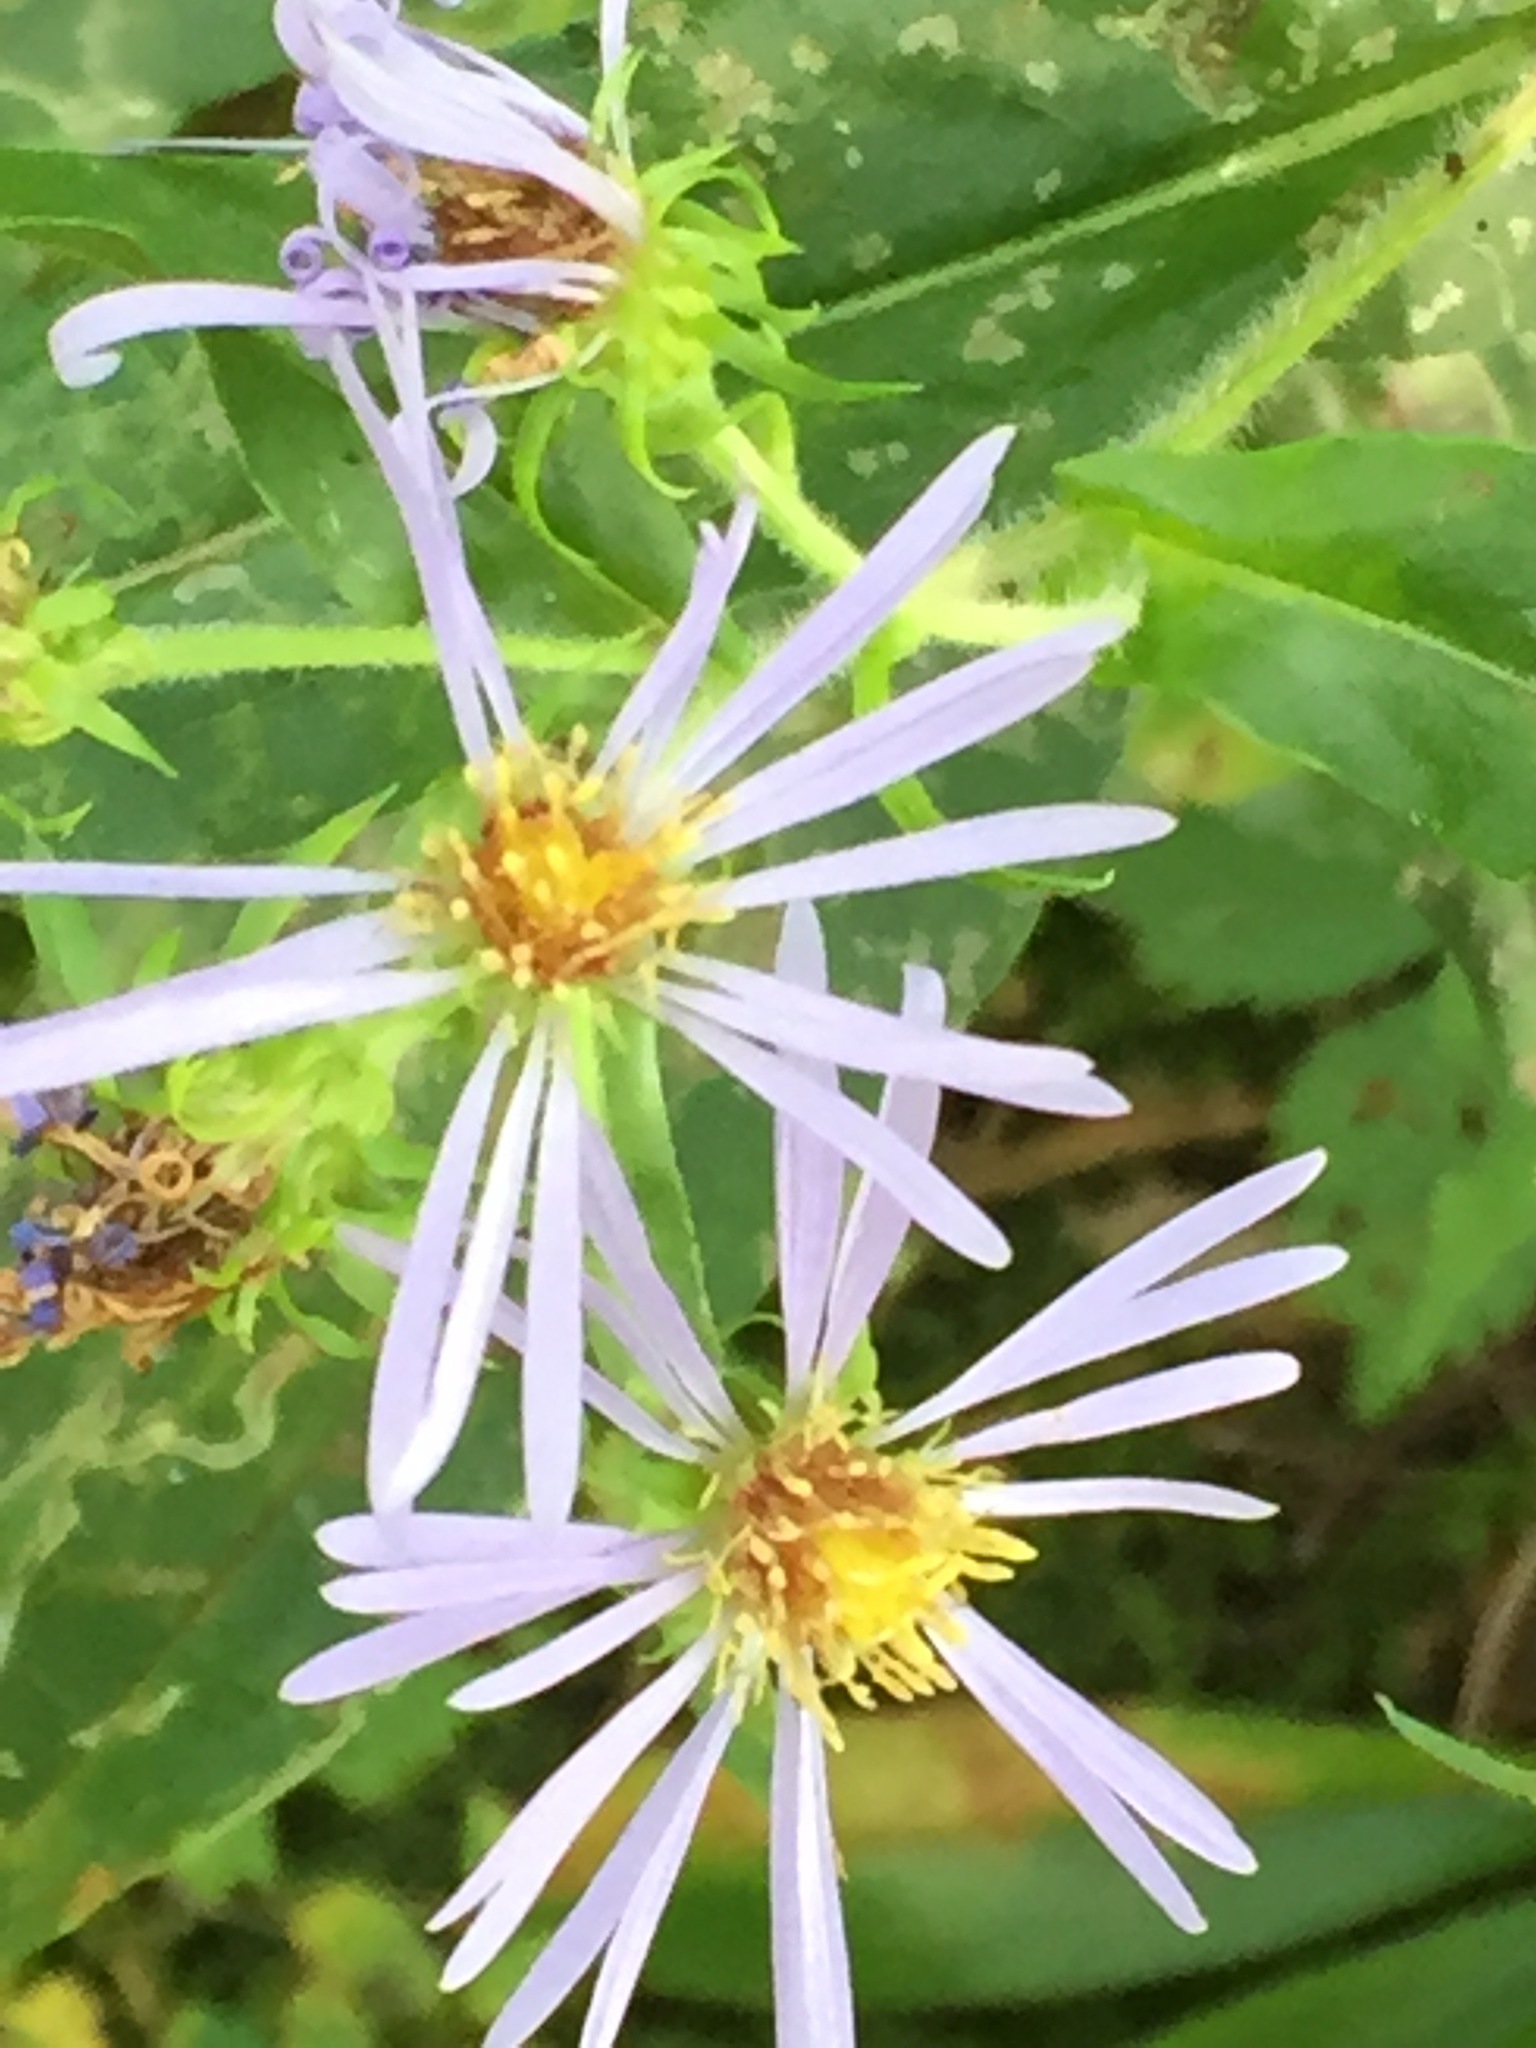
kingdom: Plantae
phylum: Tracheophyta
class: Magnoliopsida
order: Asterales
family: Asteraceae
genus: Symphyotrichum
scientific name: Symphyotrichum puniceum
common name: Bog aster
